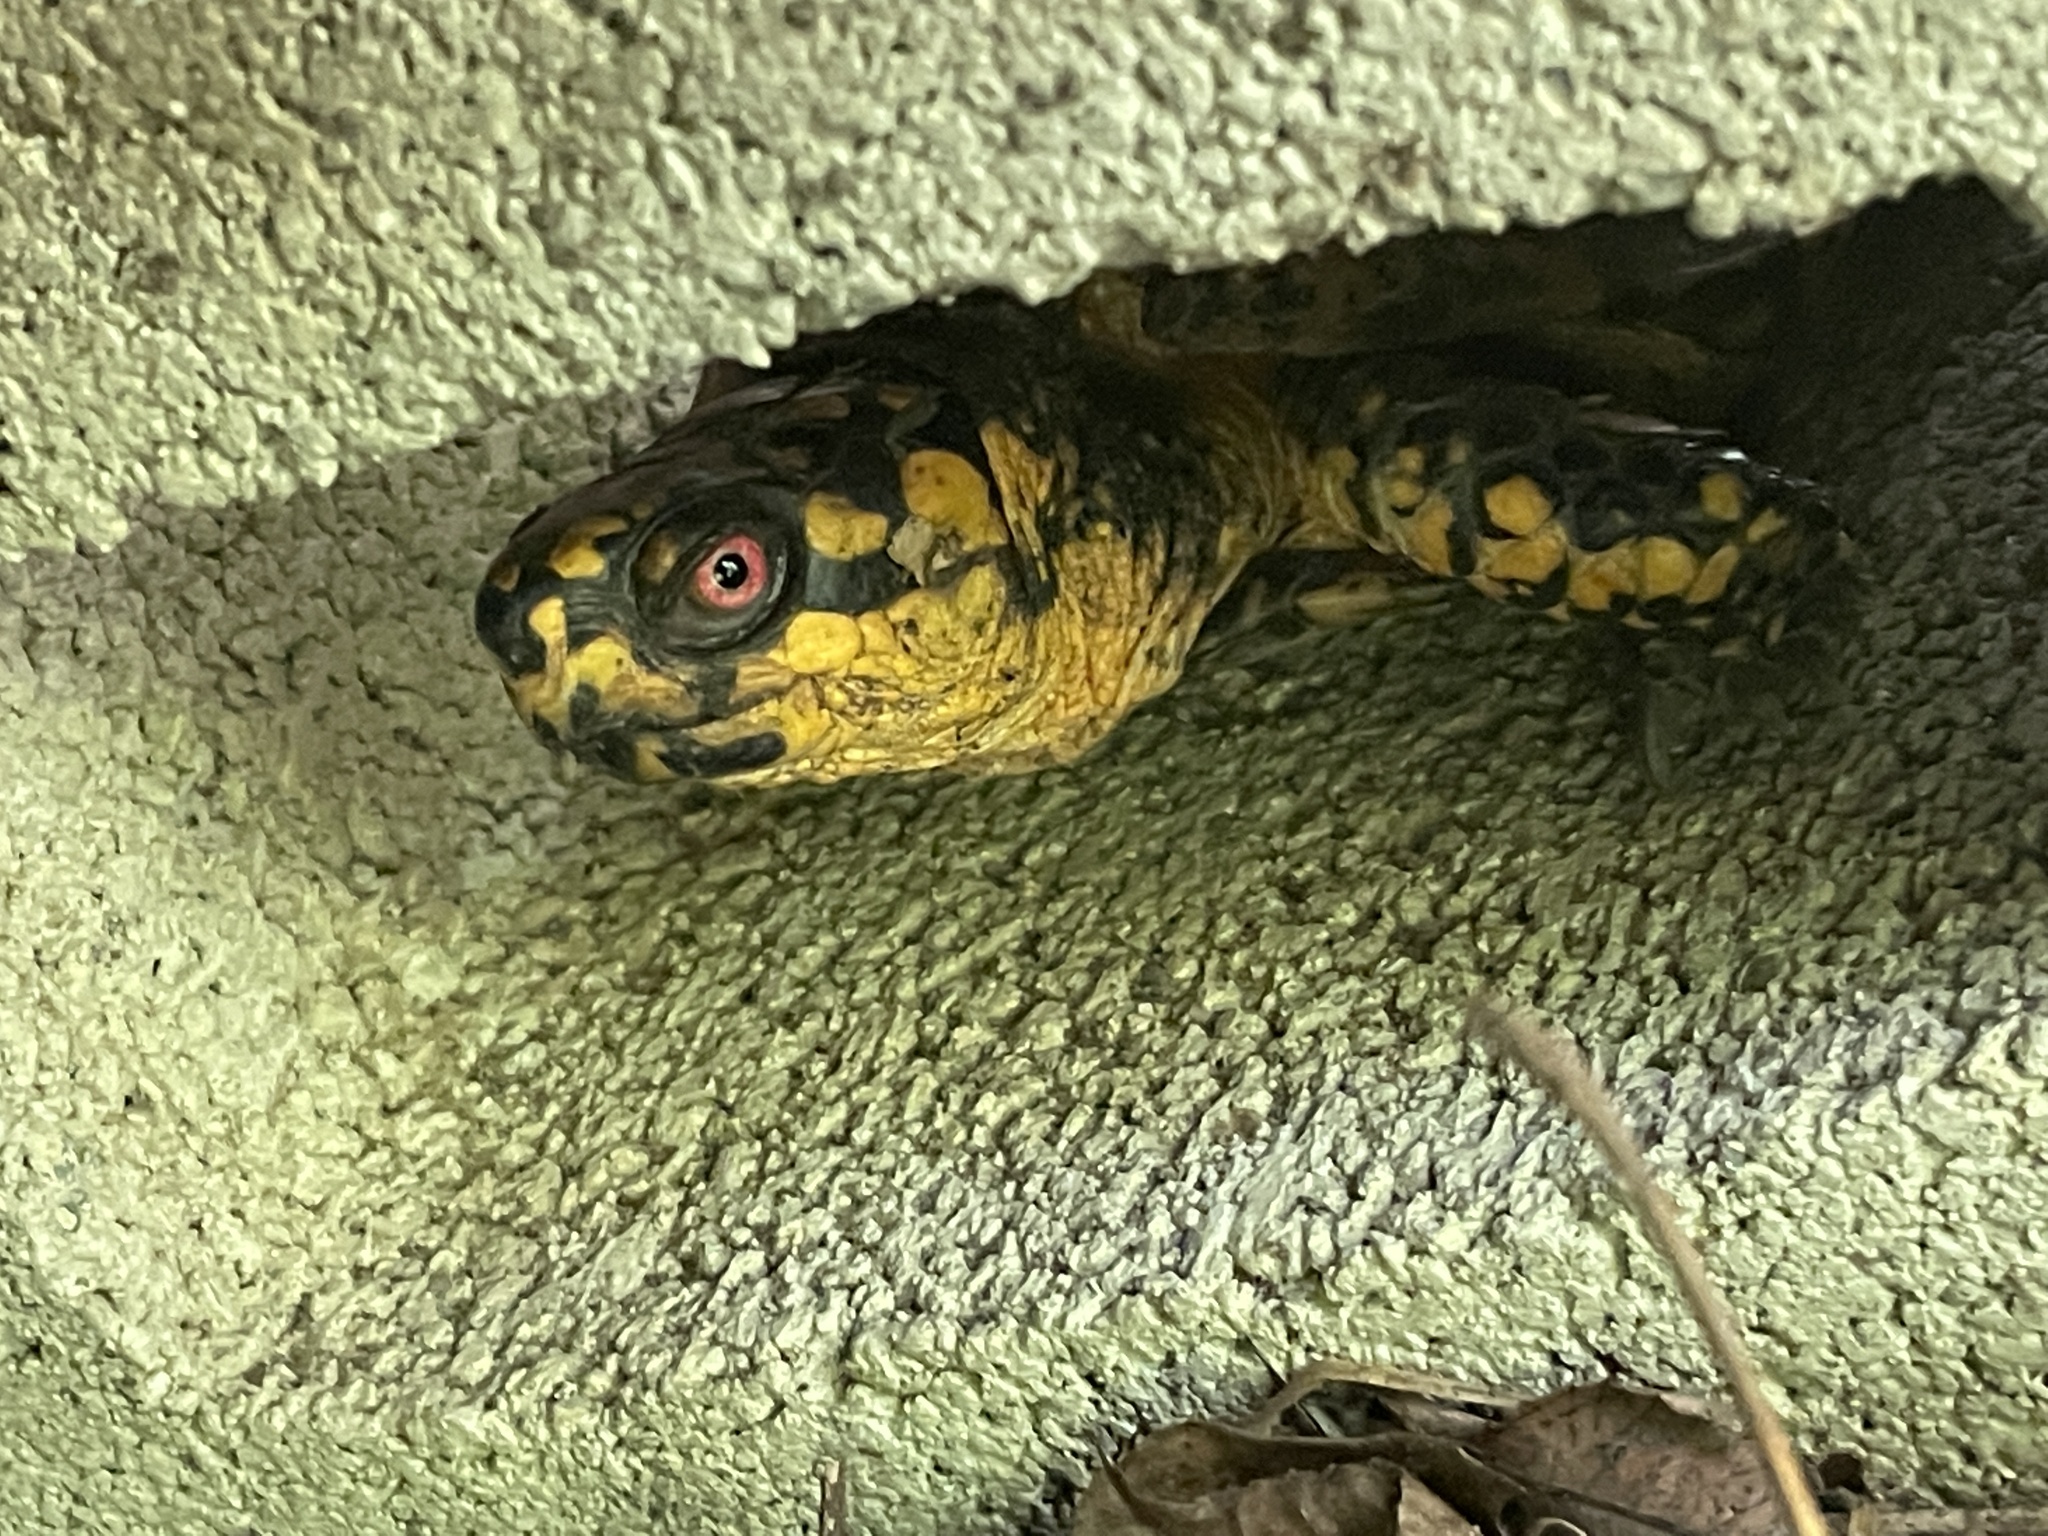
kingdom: Animalia
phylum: Chordata
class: Testudines
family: Emydidae
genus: Terrapene
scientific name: Terrapene carolina
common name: Common box turtle
